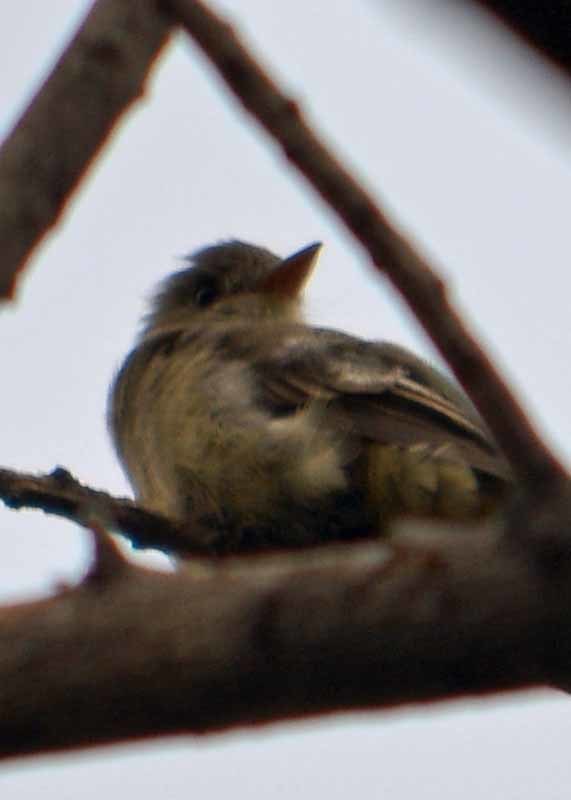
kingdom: Animalia
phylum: Chordata
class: Aves
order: Passeriformes
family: Tyrannidae
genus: Contopus
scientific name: Contopus pertinax
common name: Greater pewee
